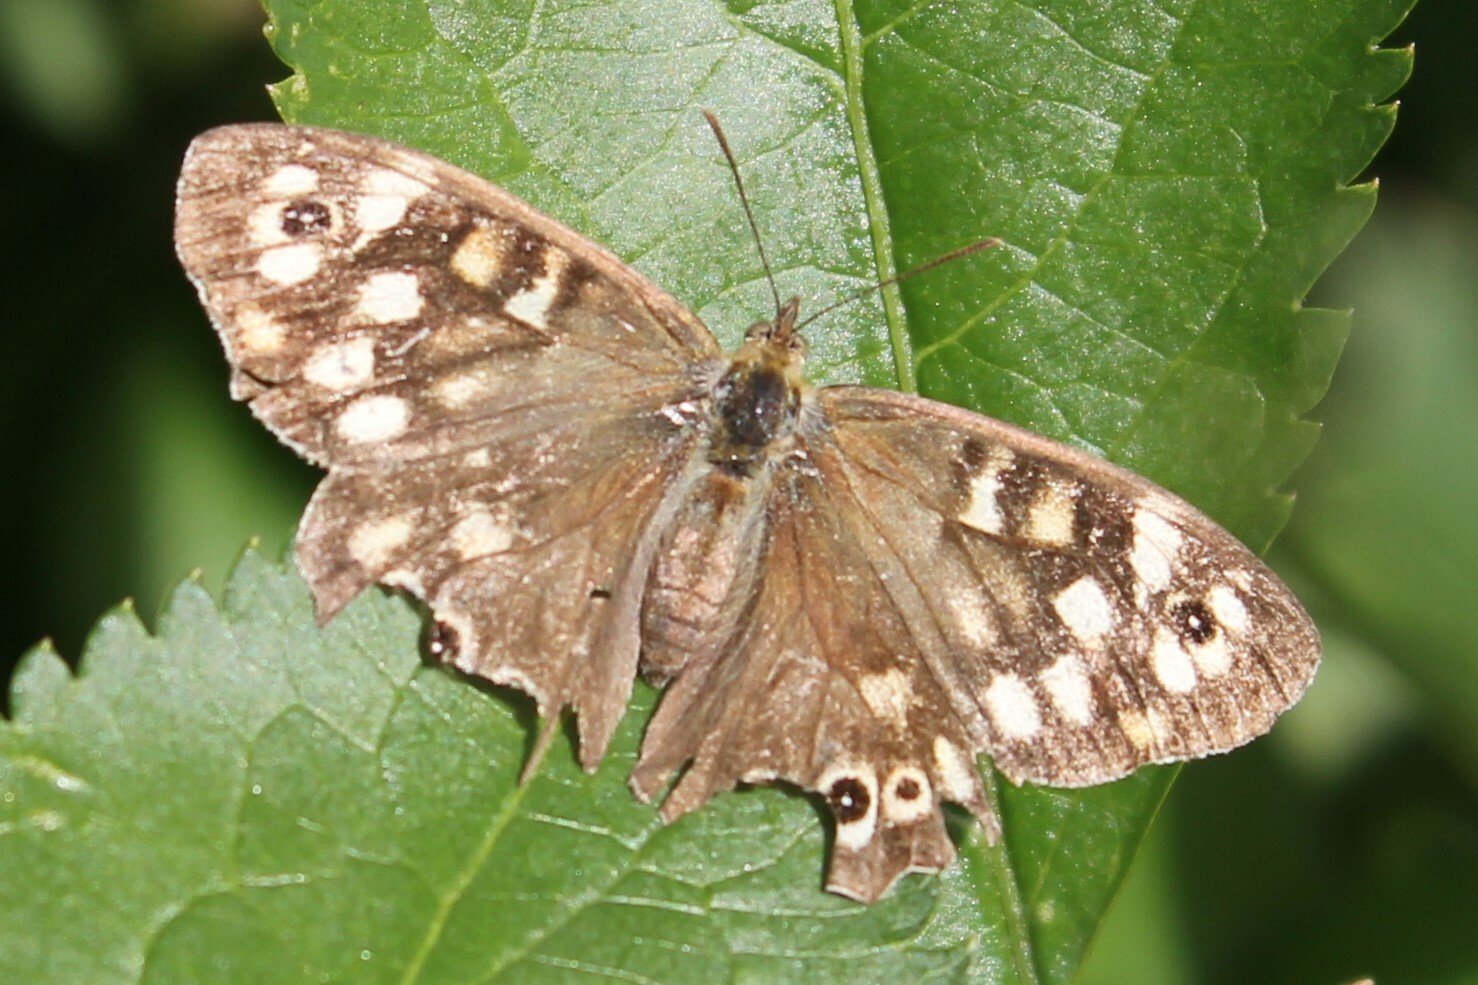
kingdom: Animalia
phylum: Arthropoda
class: Insecta
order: Lepidoptera
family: Nymphalidae
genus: Pararge
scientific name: Pararge aegeria
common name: Speckled wood
